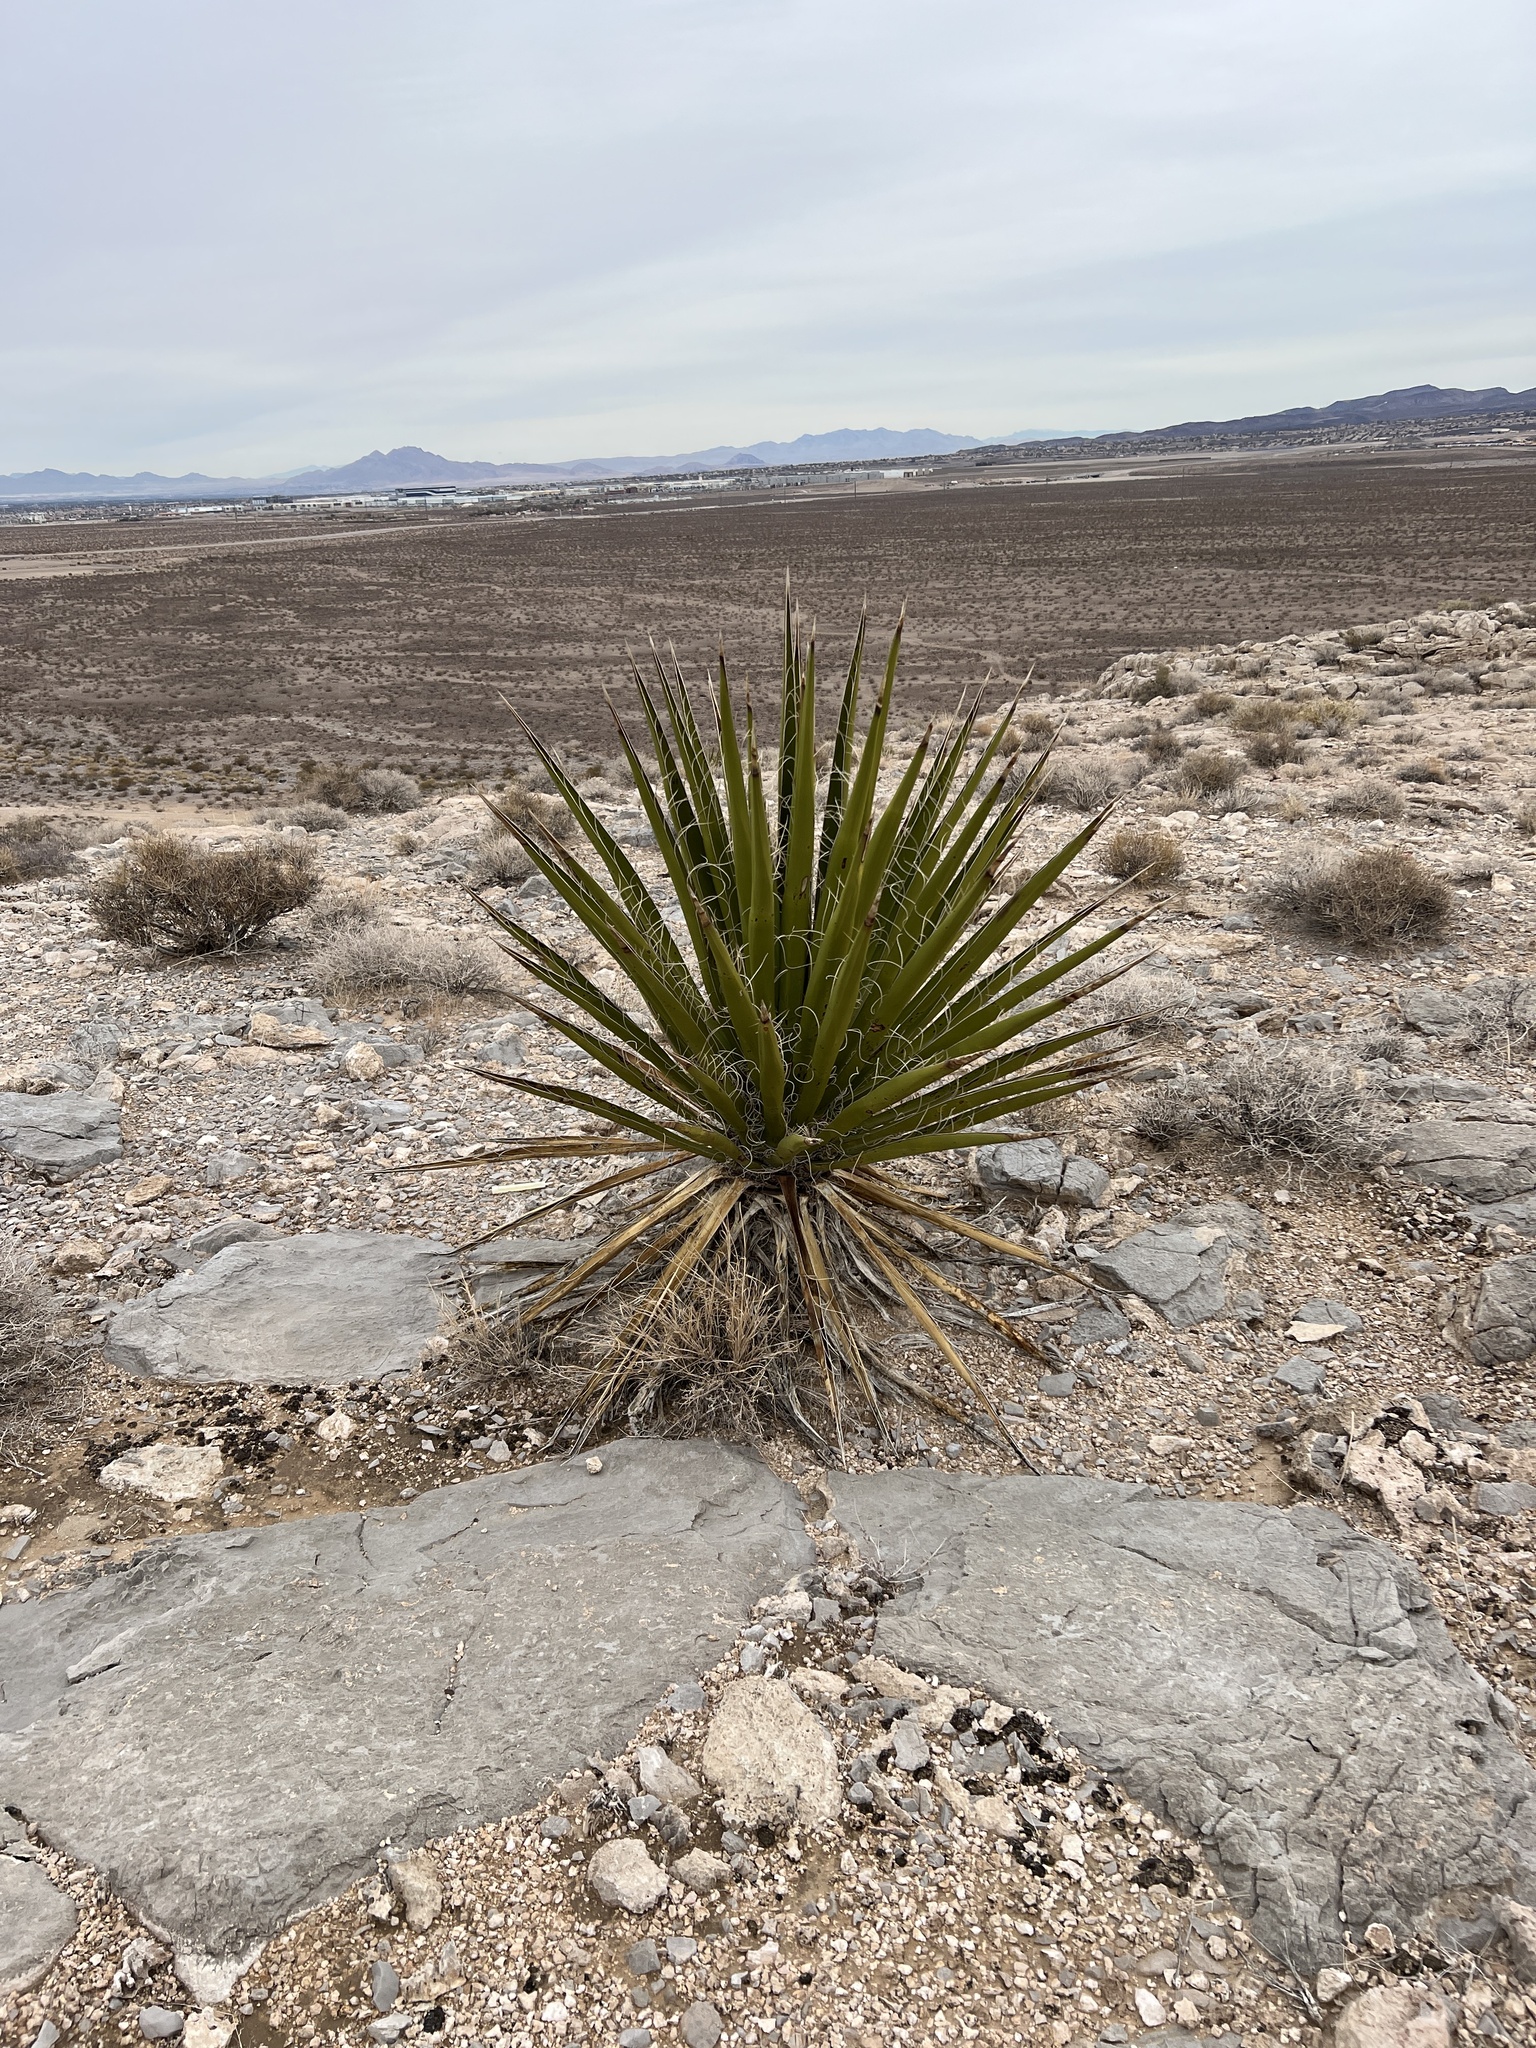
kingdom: Plantae
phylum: Tracheophyta
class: Liliopsida
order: Asparagales
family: Asparagaceae
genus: Yucca
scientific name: Yucca schidigera
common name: Mojave yucca
